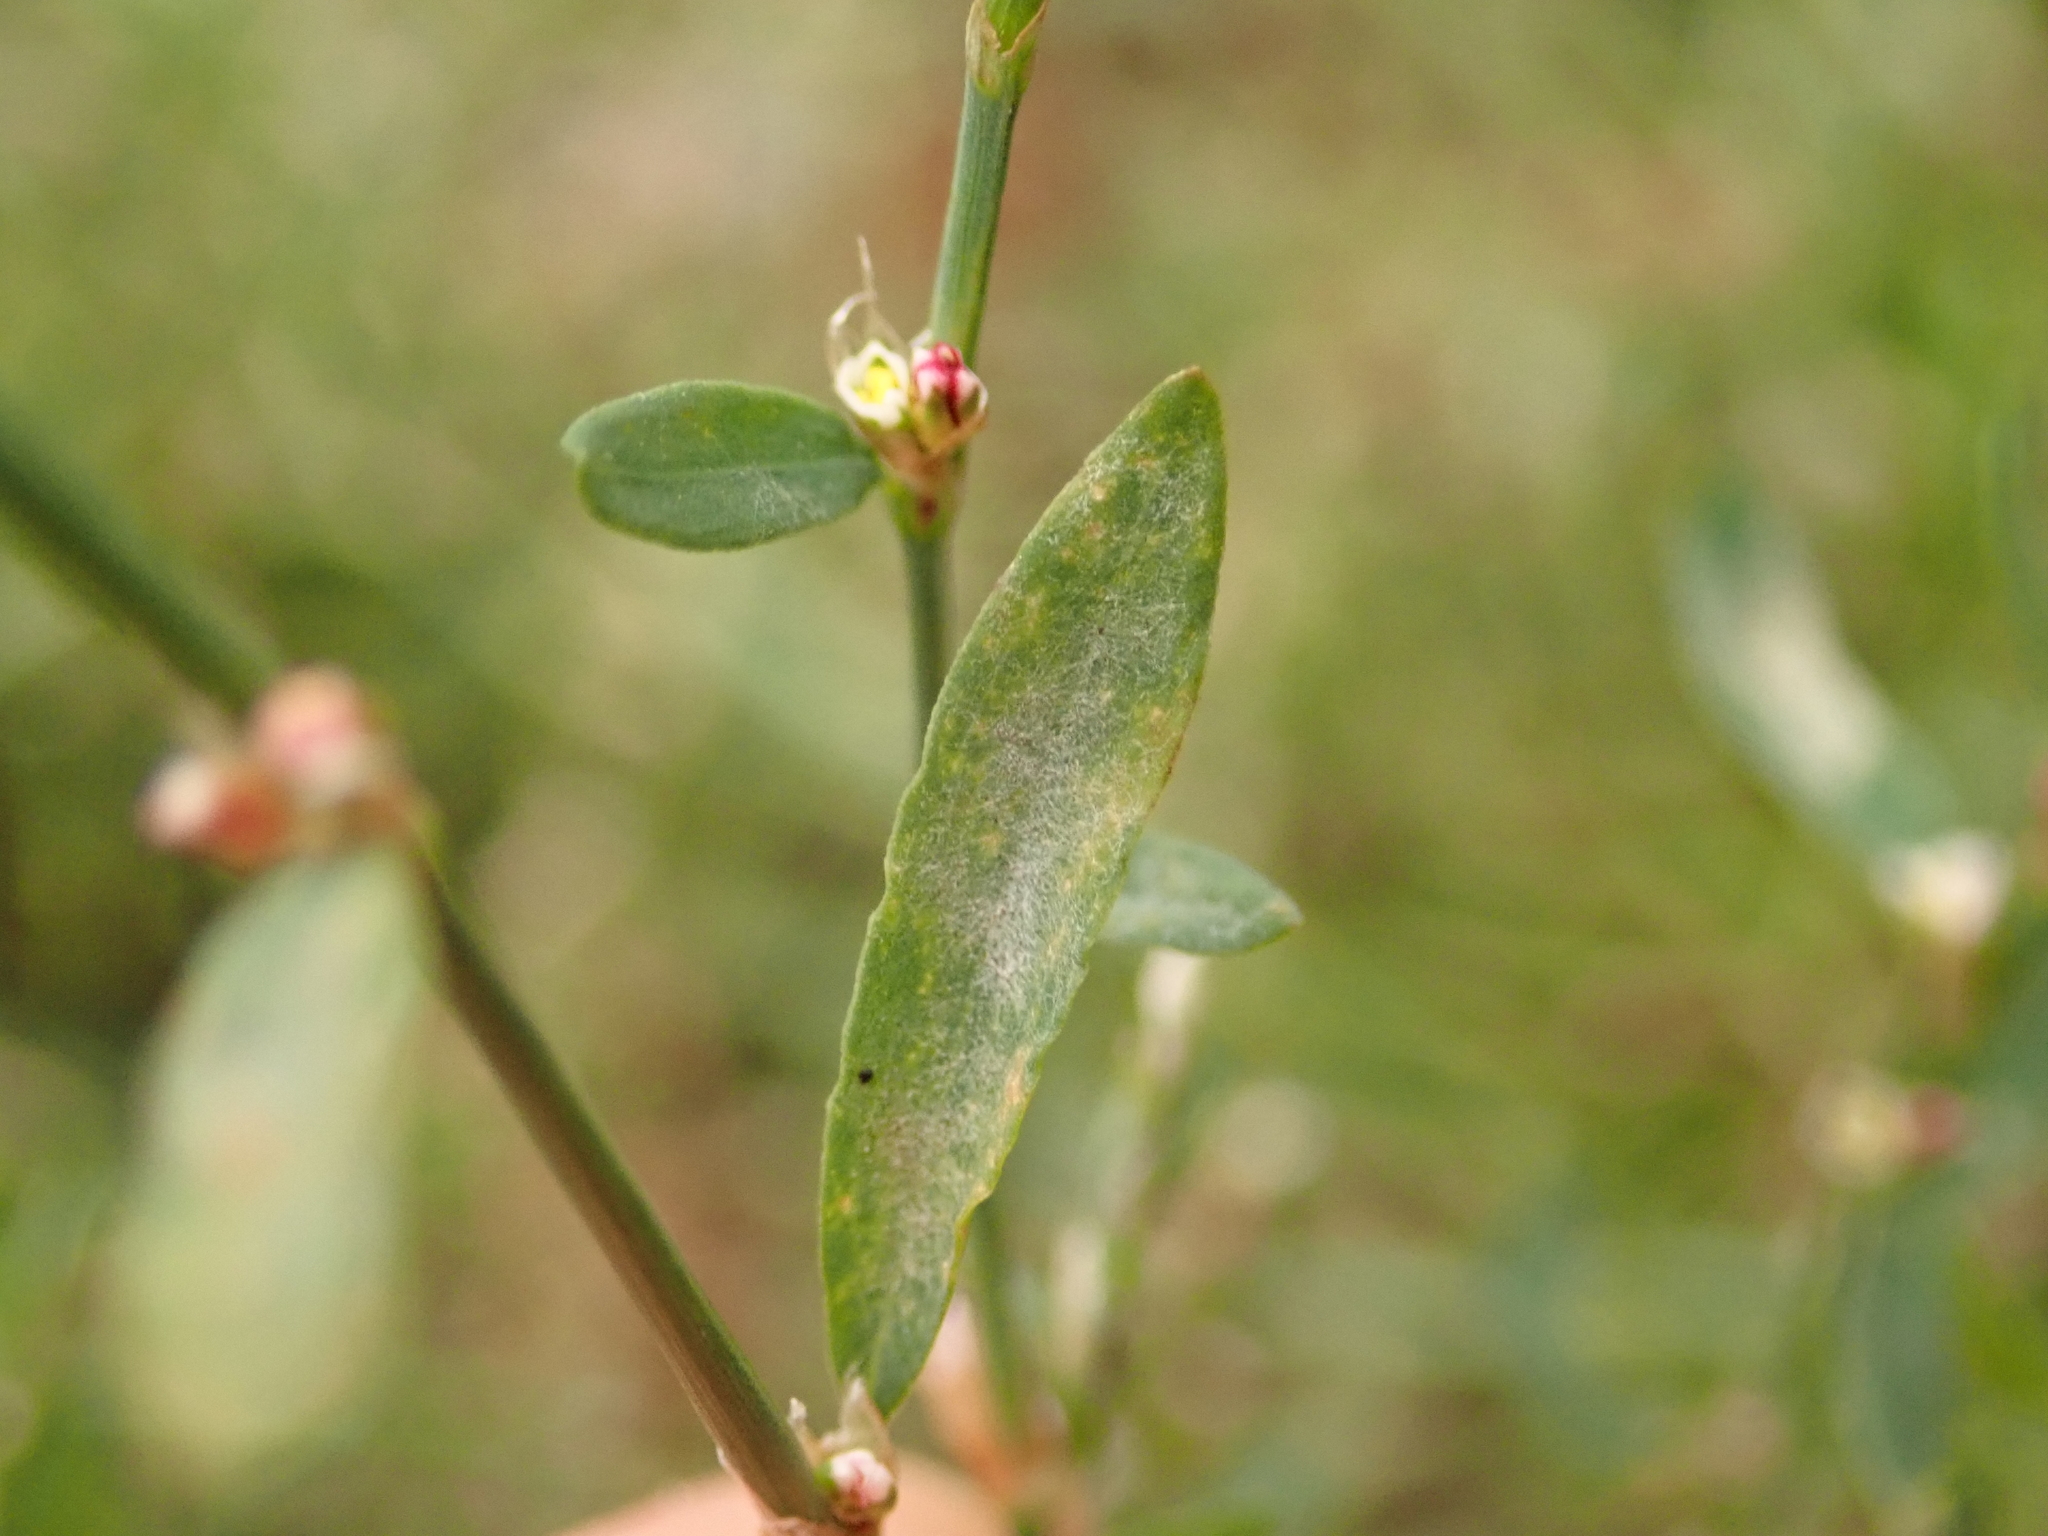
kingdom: Fungi
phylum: Ascomycota
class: Leotiomycetes
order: Helotiales
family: Erysiphaceae
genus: Erysiphe
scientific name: Erysiphe polygoni
